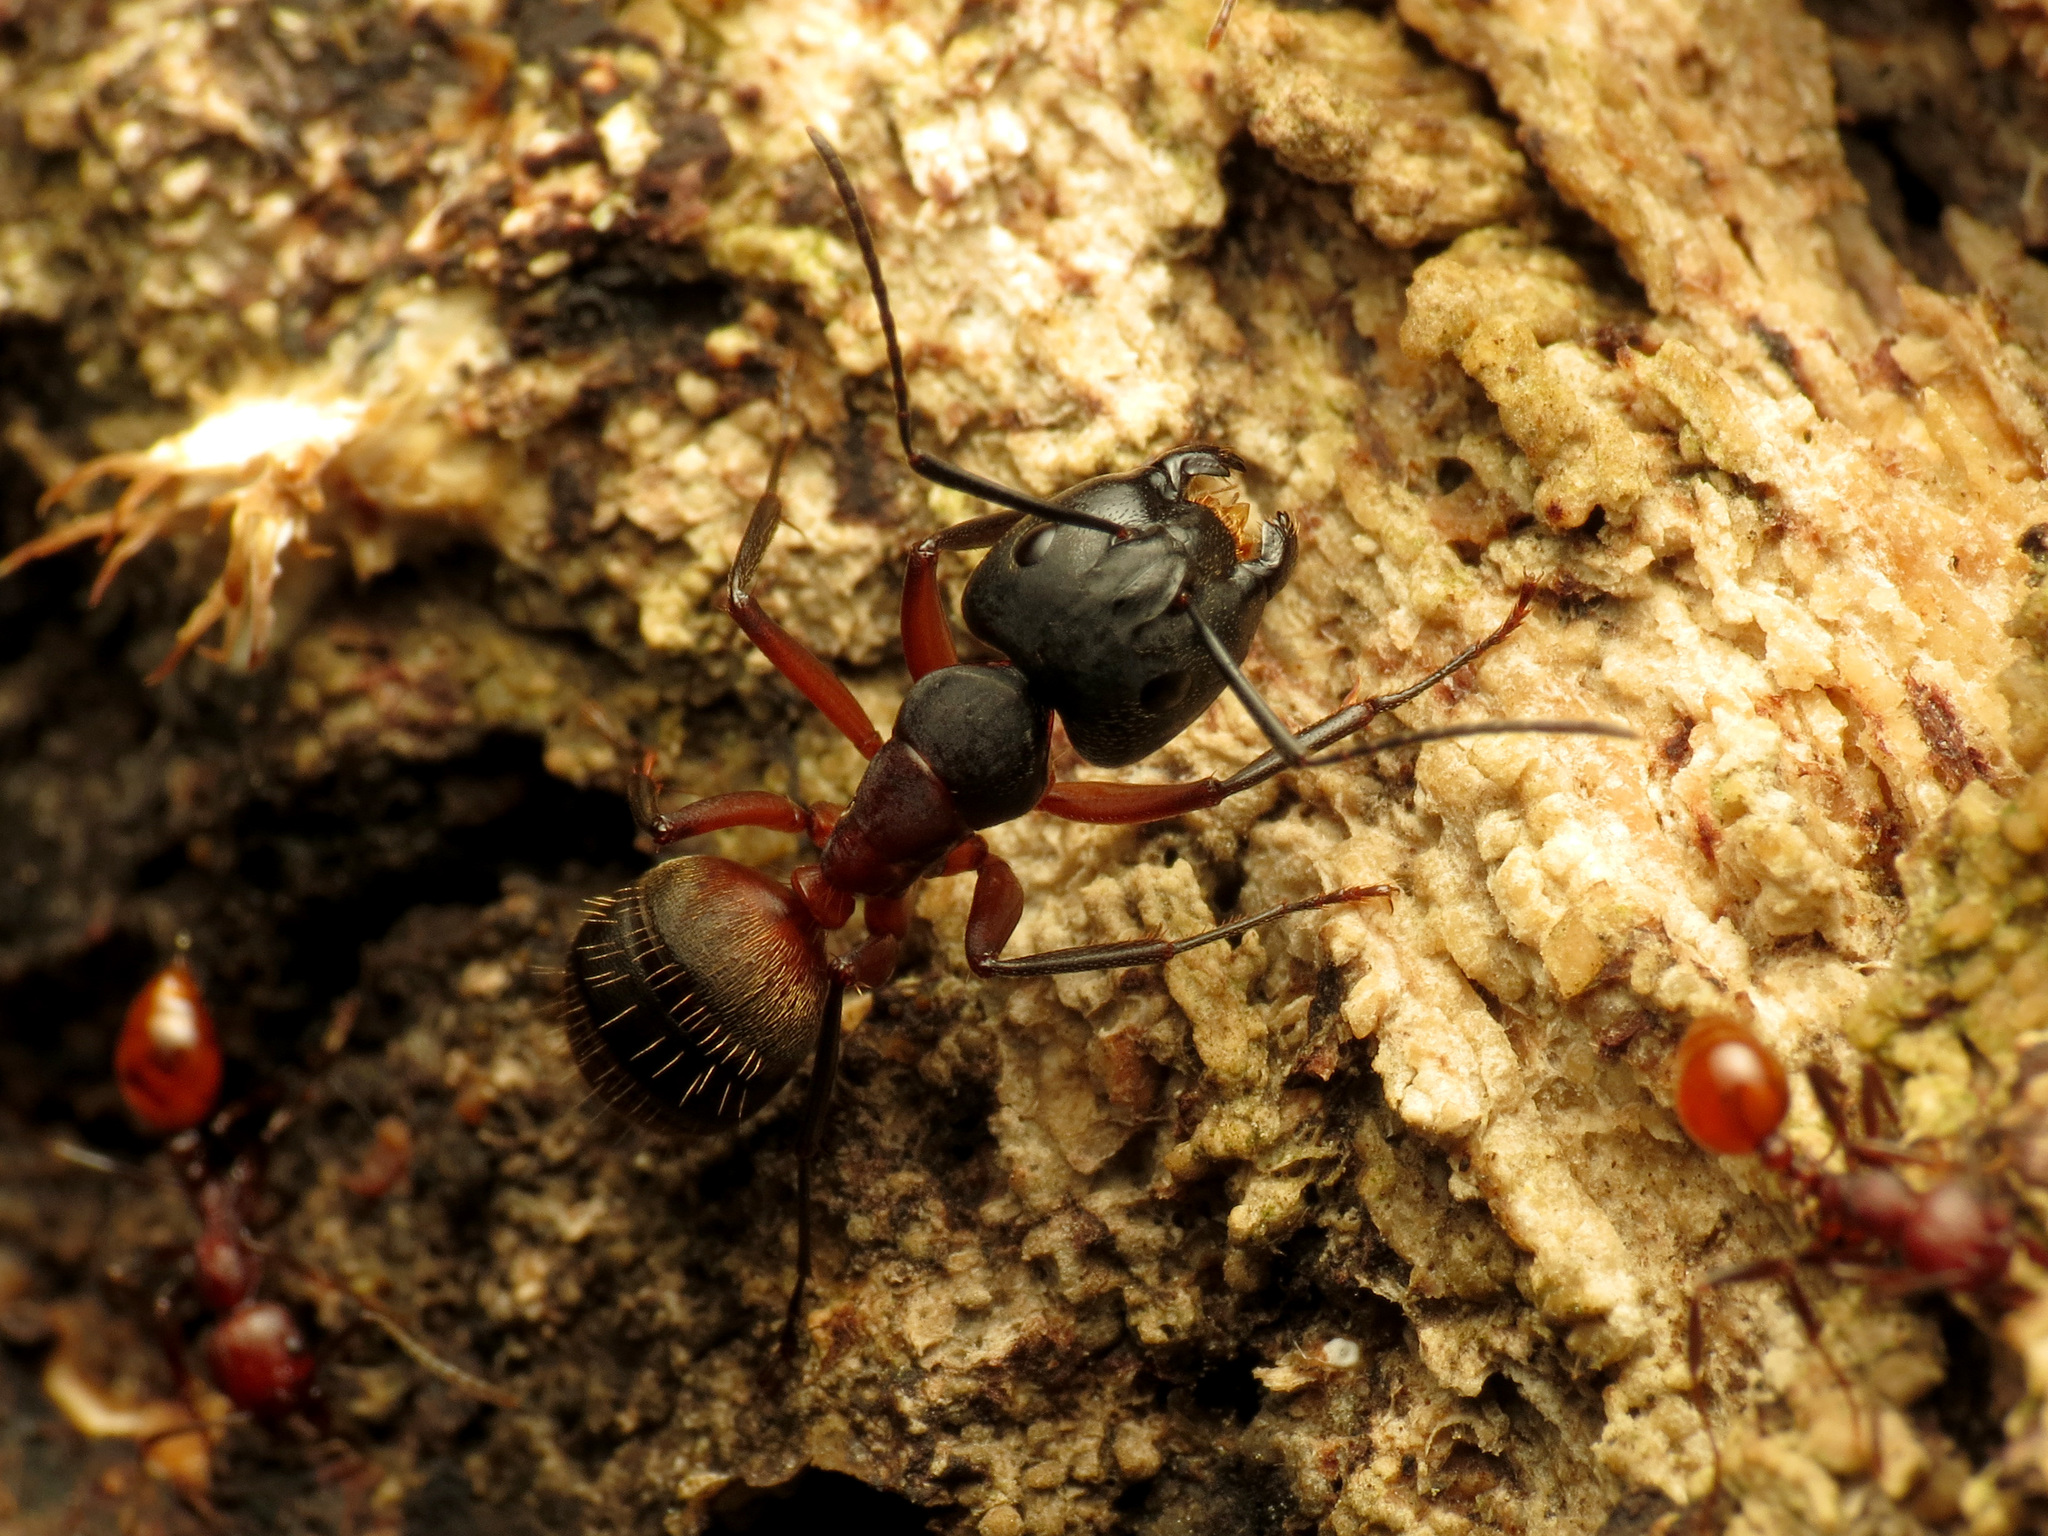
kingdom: Animalia
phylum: Arthropoda
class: Insecta
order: Hymenoptera
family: Formicidae
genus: Camponotus
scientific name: Camponotus chromaiodes
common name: Red carpenter ant
